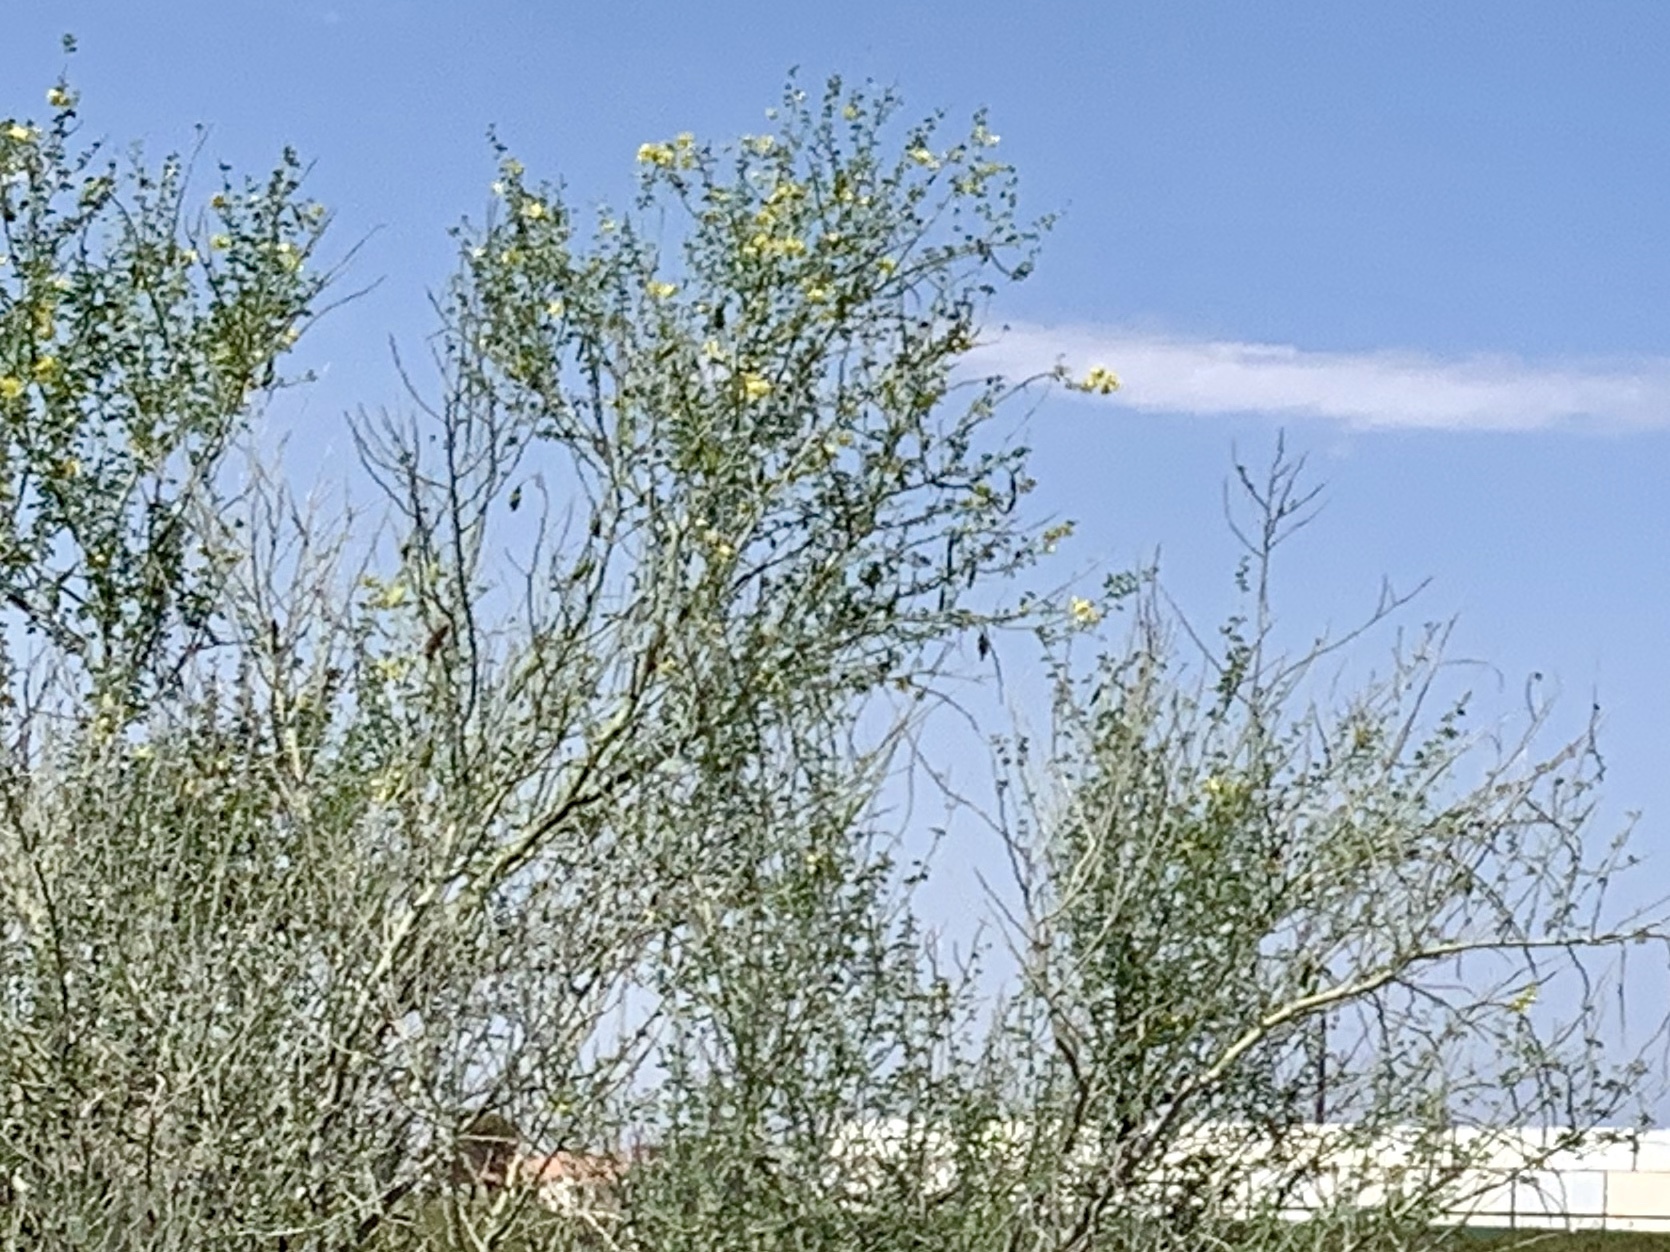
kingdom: Plantae
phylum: Tracheophyta
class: Magnoliopsida
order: Fabales
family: Fabaceae
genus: Parkinsonia
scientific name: Parkinsonia florida
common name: Blue paloverde
